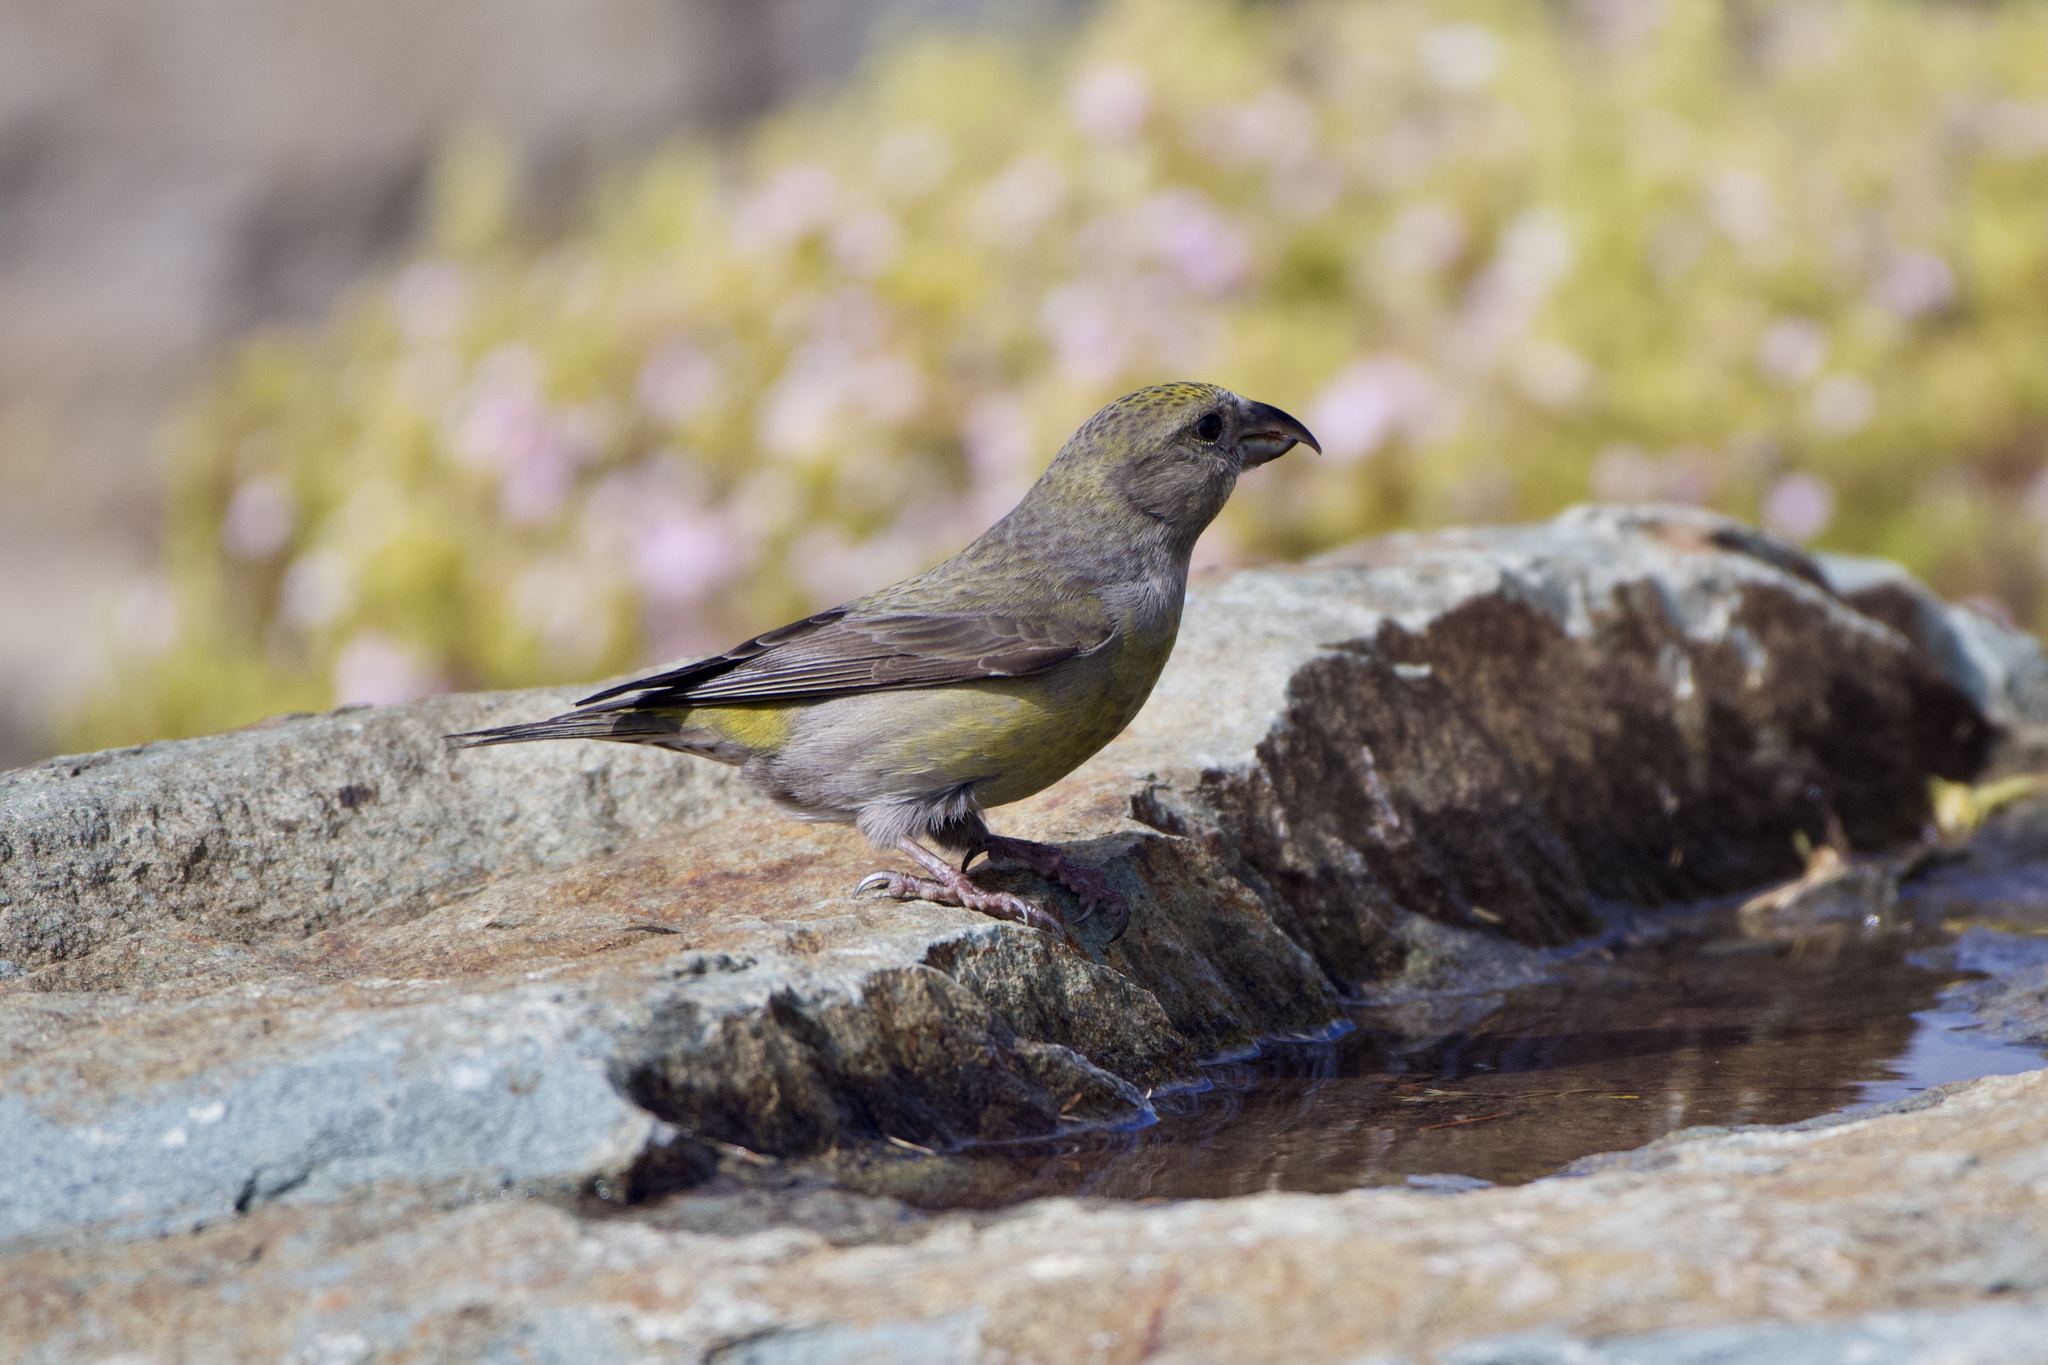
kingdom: Animalia
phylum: Chordata
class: Aves
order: Passeriformes
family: Fringillidae
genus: Loxia
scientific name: Loxia curvirostra
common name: Red crossbill
